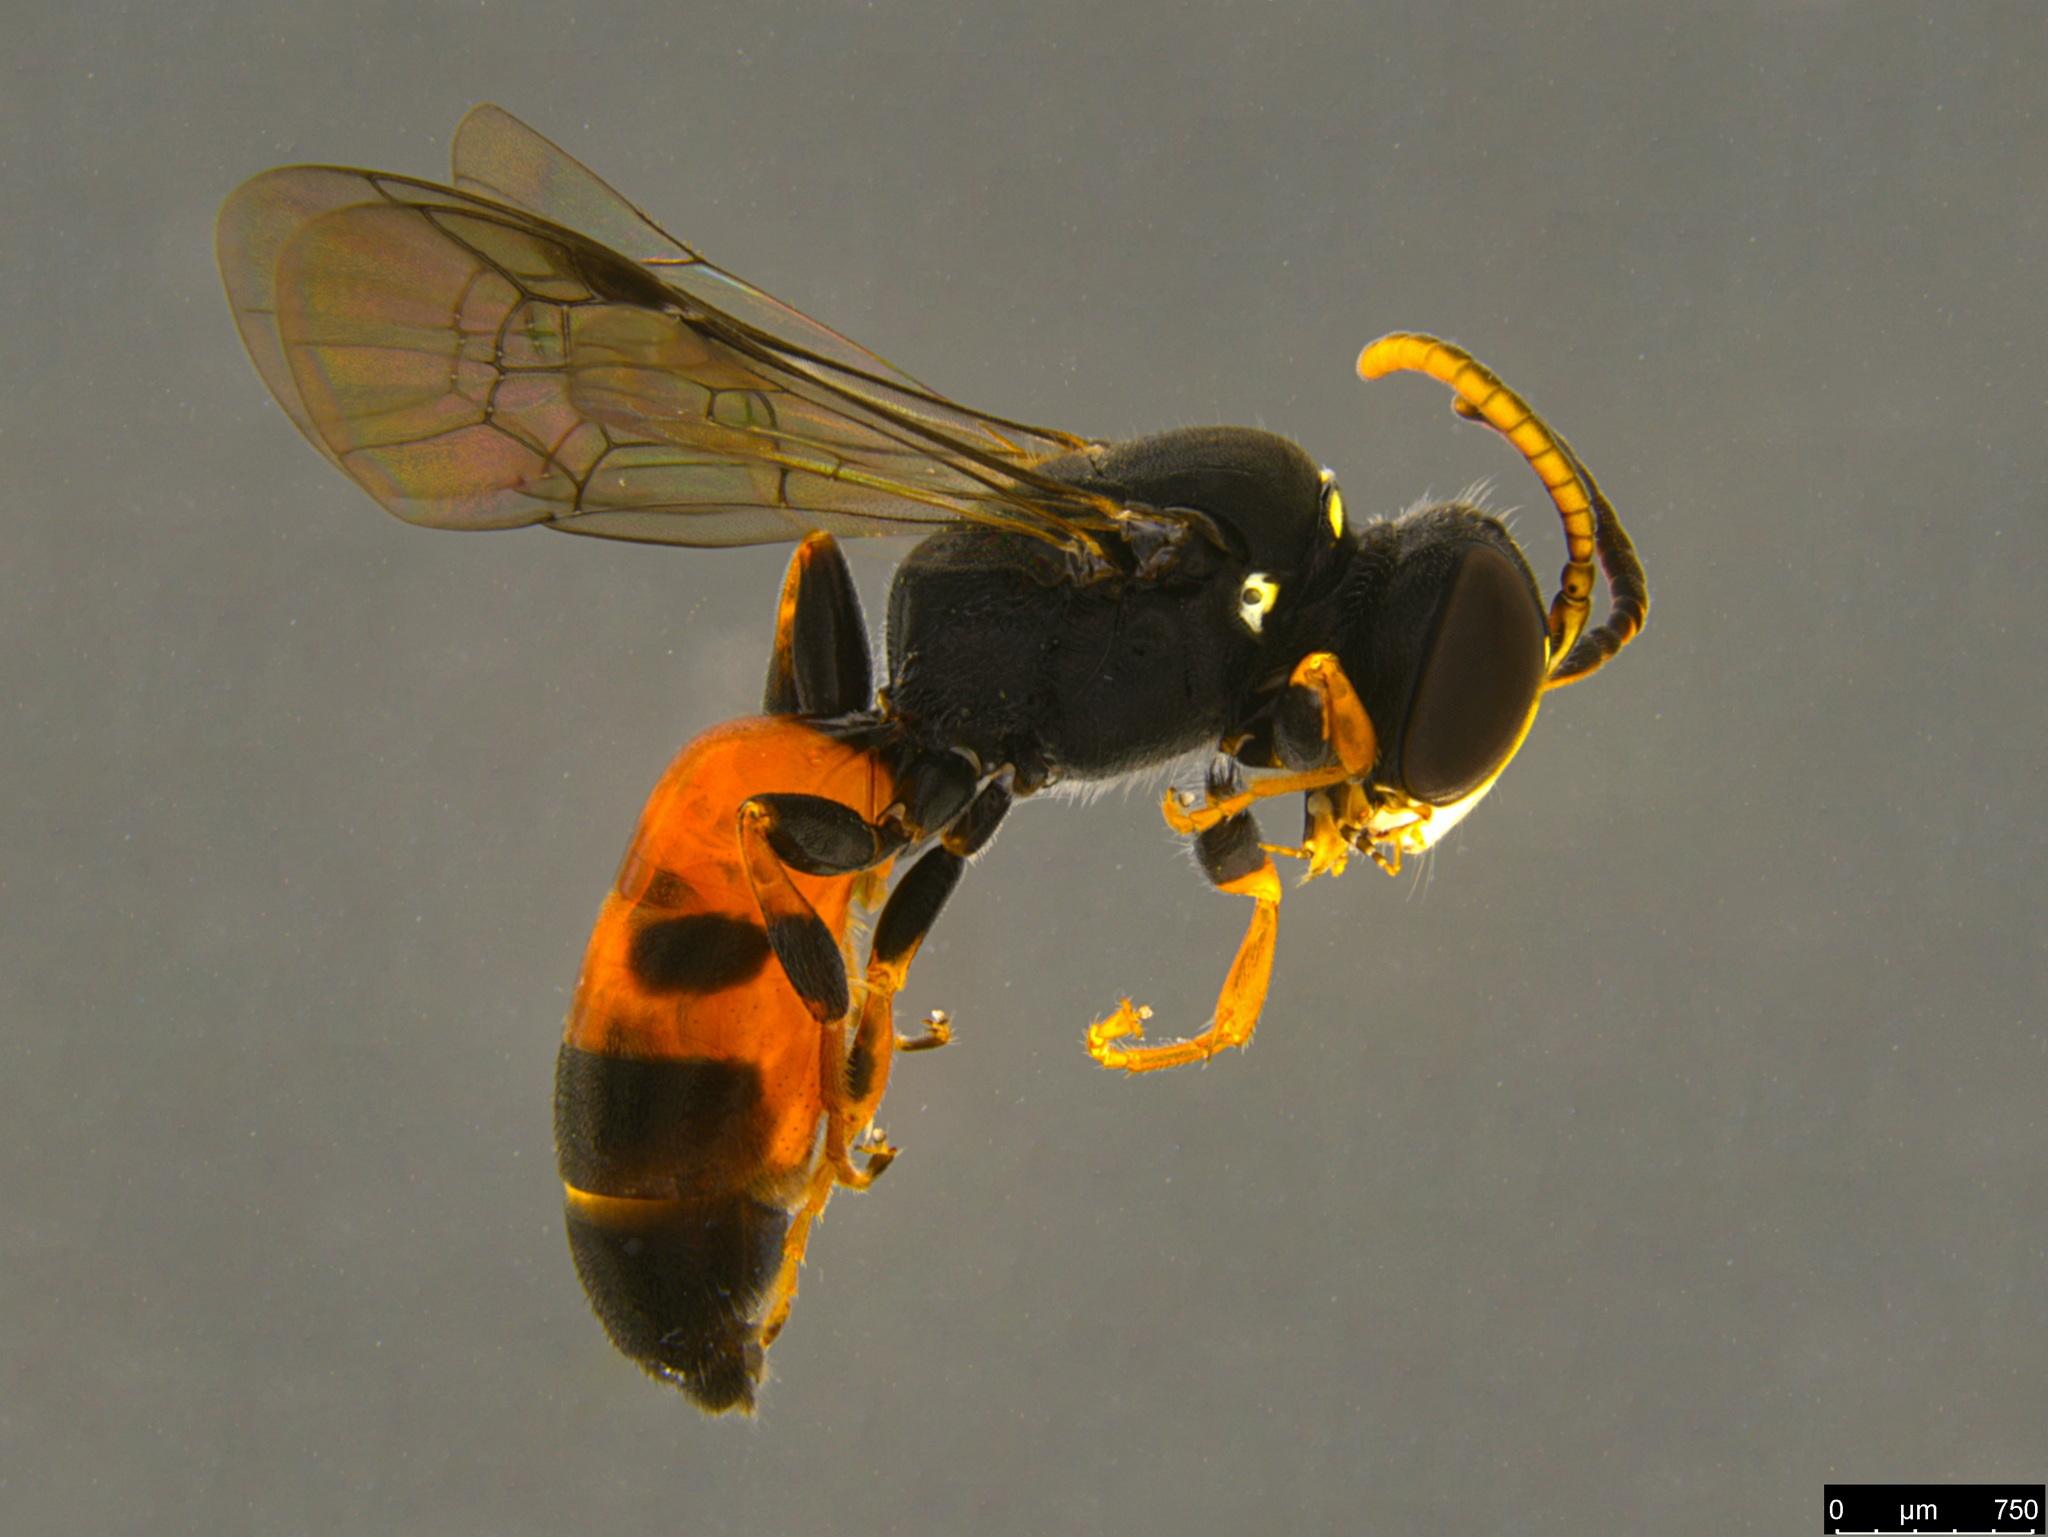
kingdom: Animalia
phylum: Arthropoda
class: Insecta
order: Hymenoptera
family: Colletidae
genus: Hylaeus
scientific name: Hylaeus littleri
